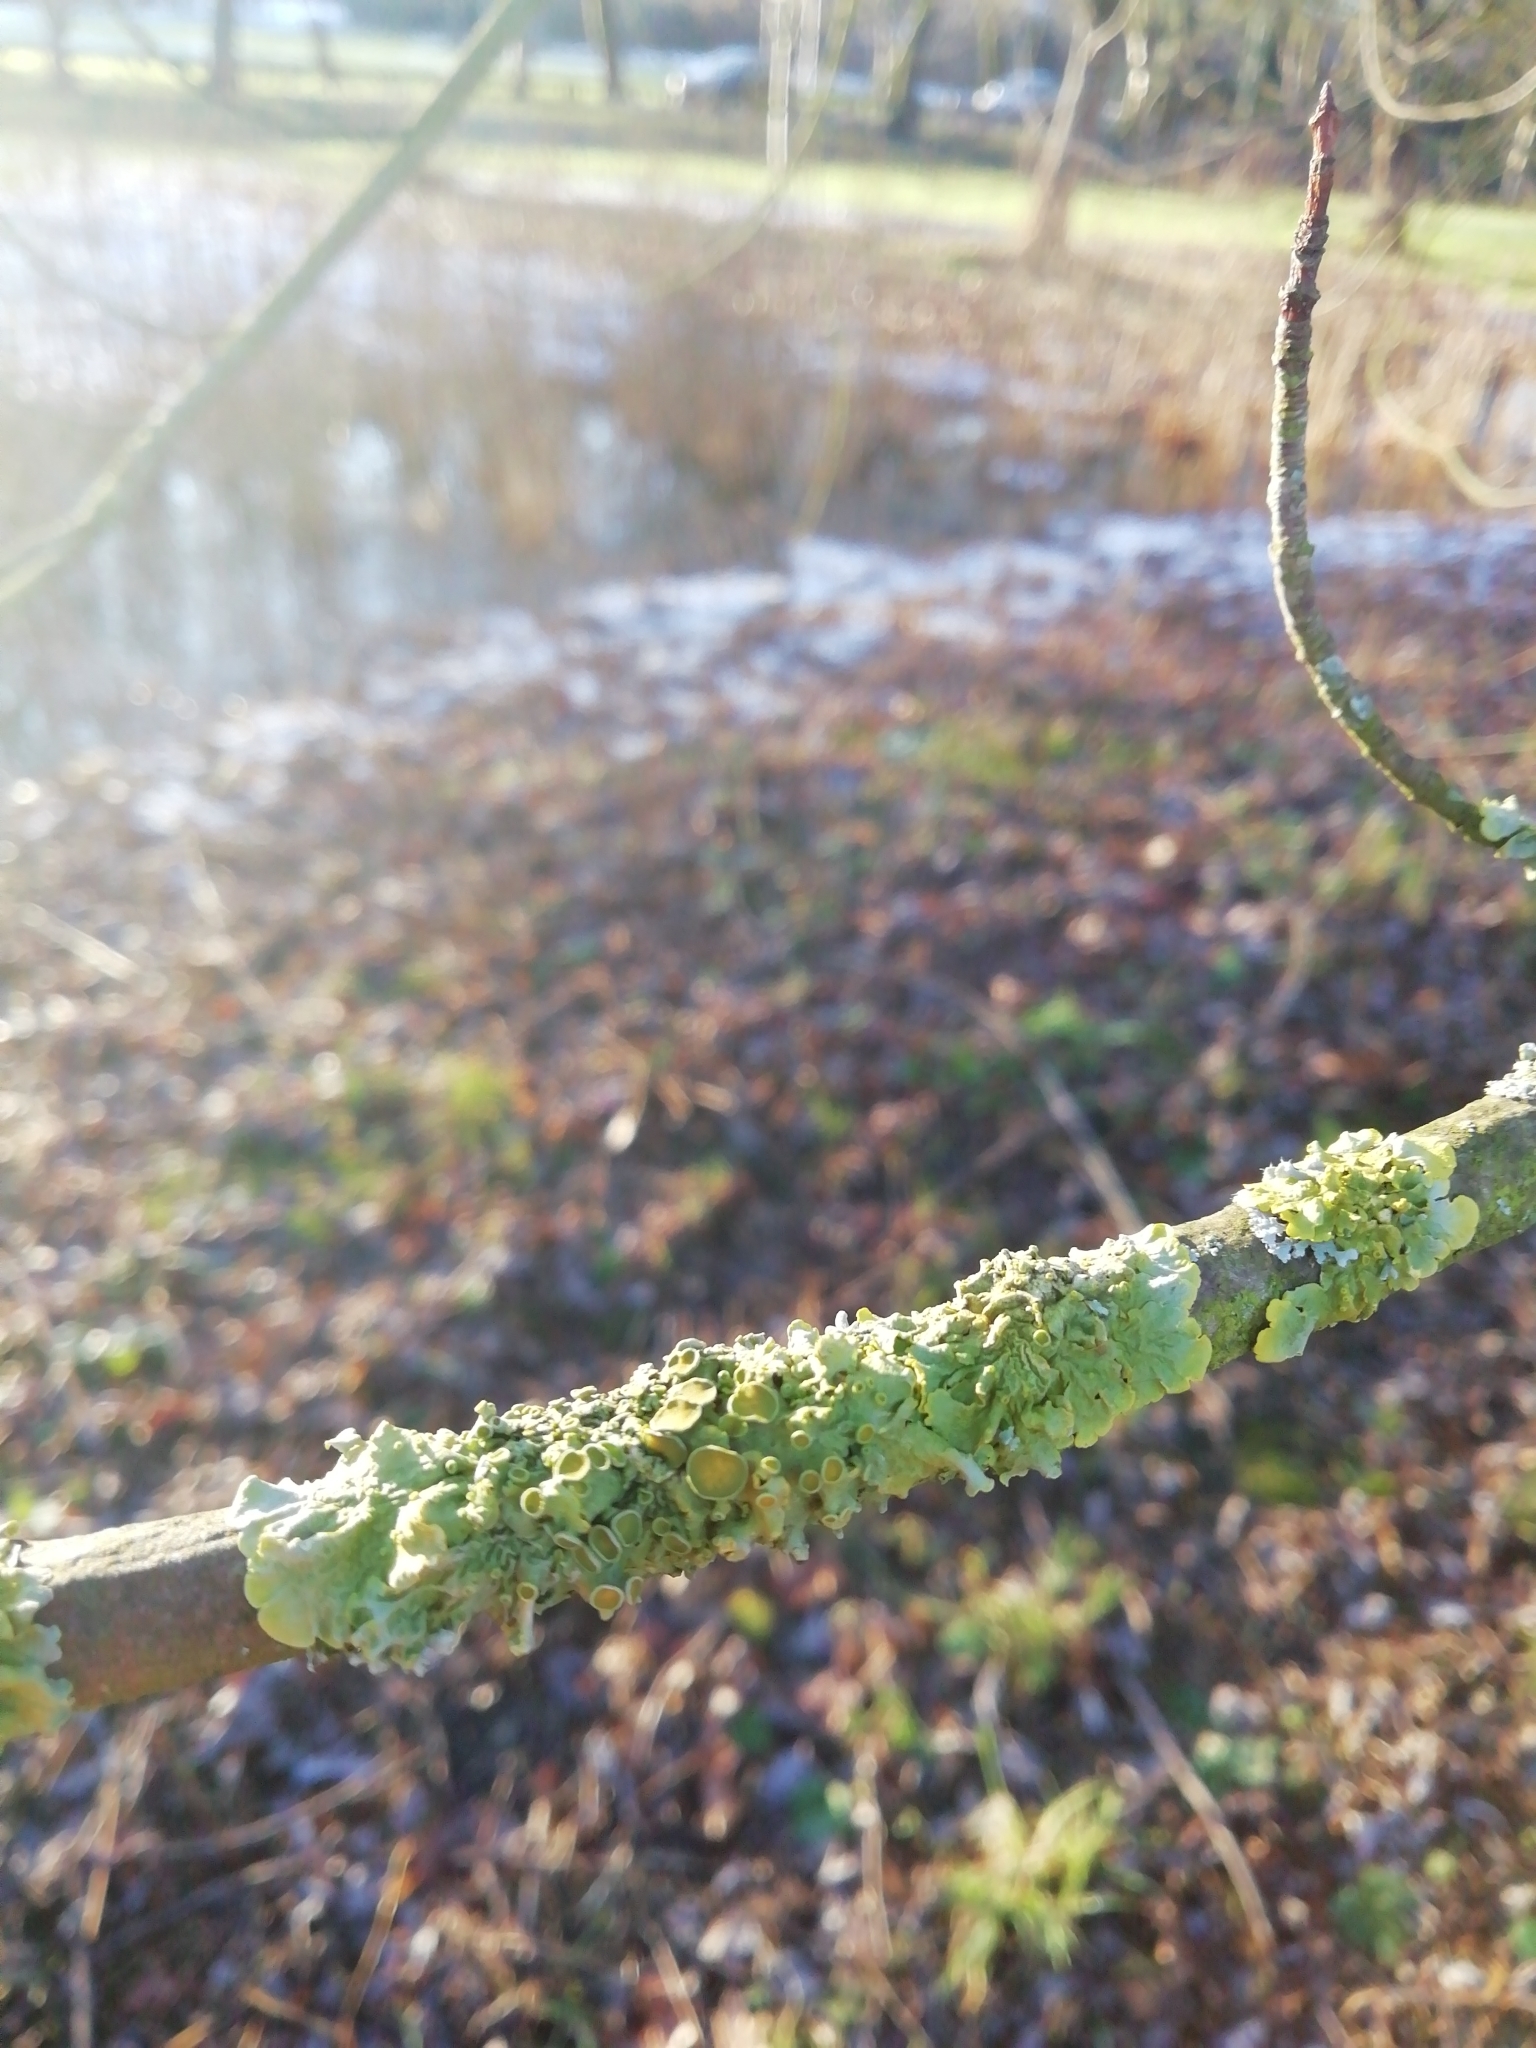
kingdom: Fungi
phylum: Ascomycota
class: Lecanoromycetes
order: Teloschistales
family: Teloschistaceae
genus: Xanthoria
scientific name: Xanthoria parietina
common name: Common orange lichen
